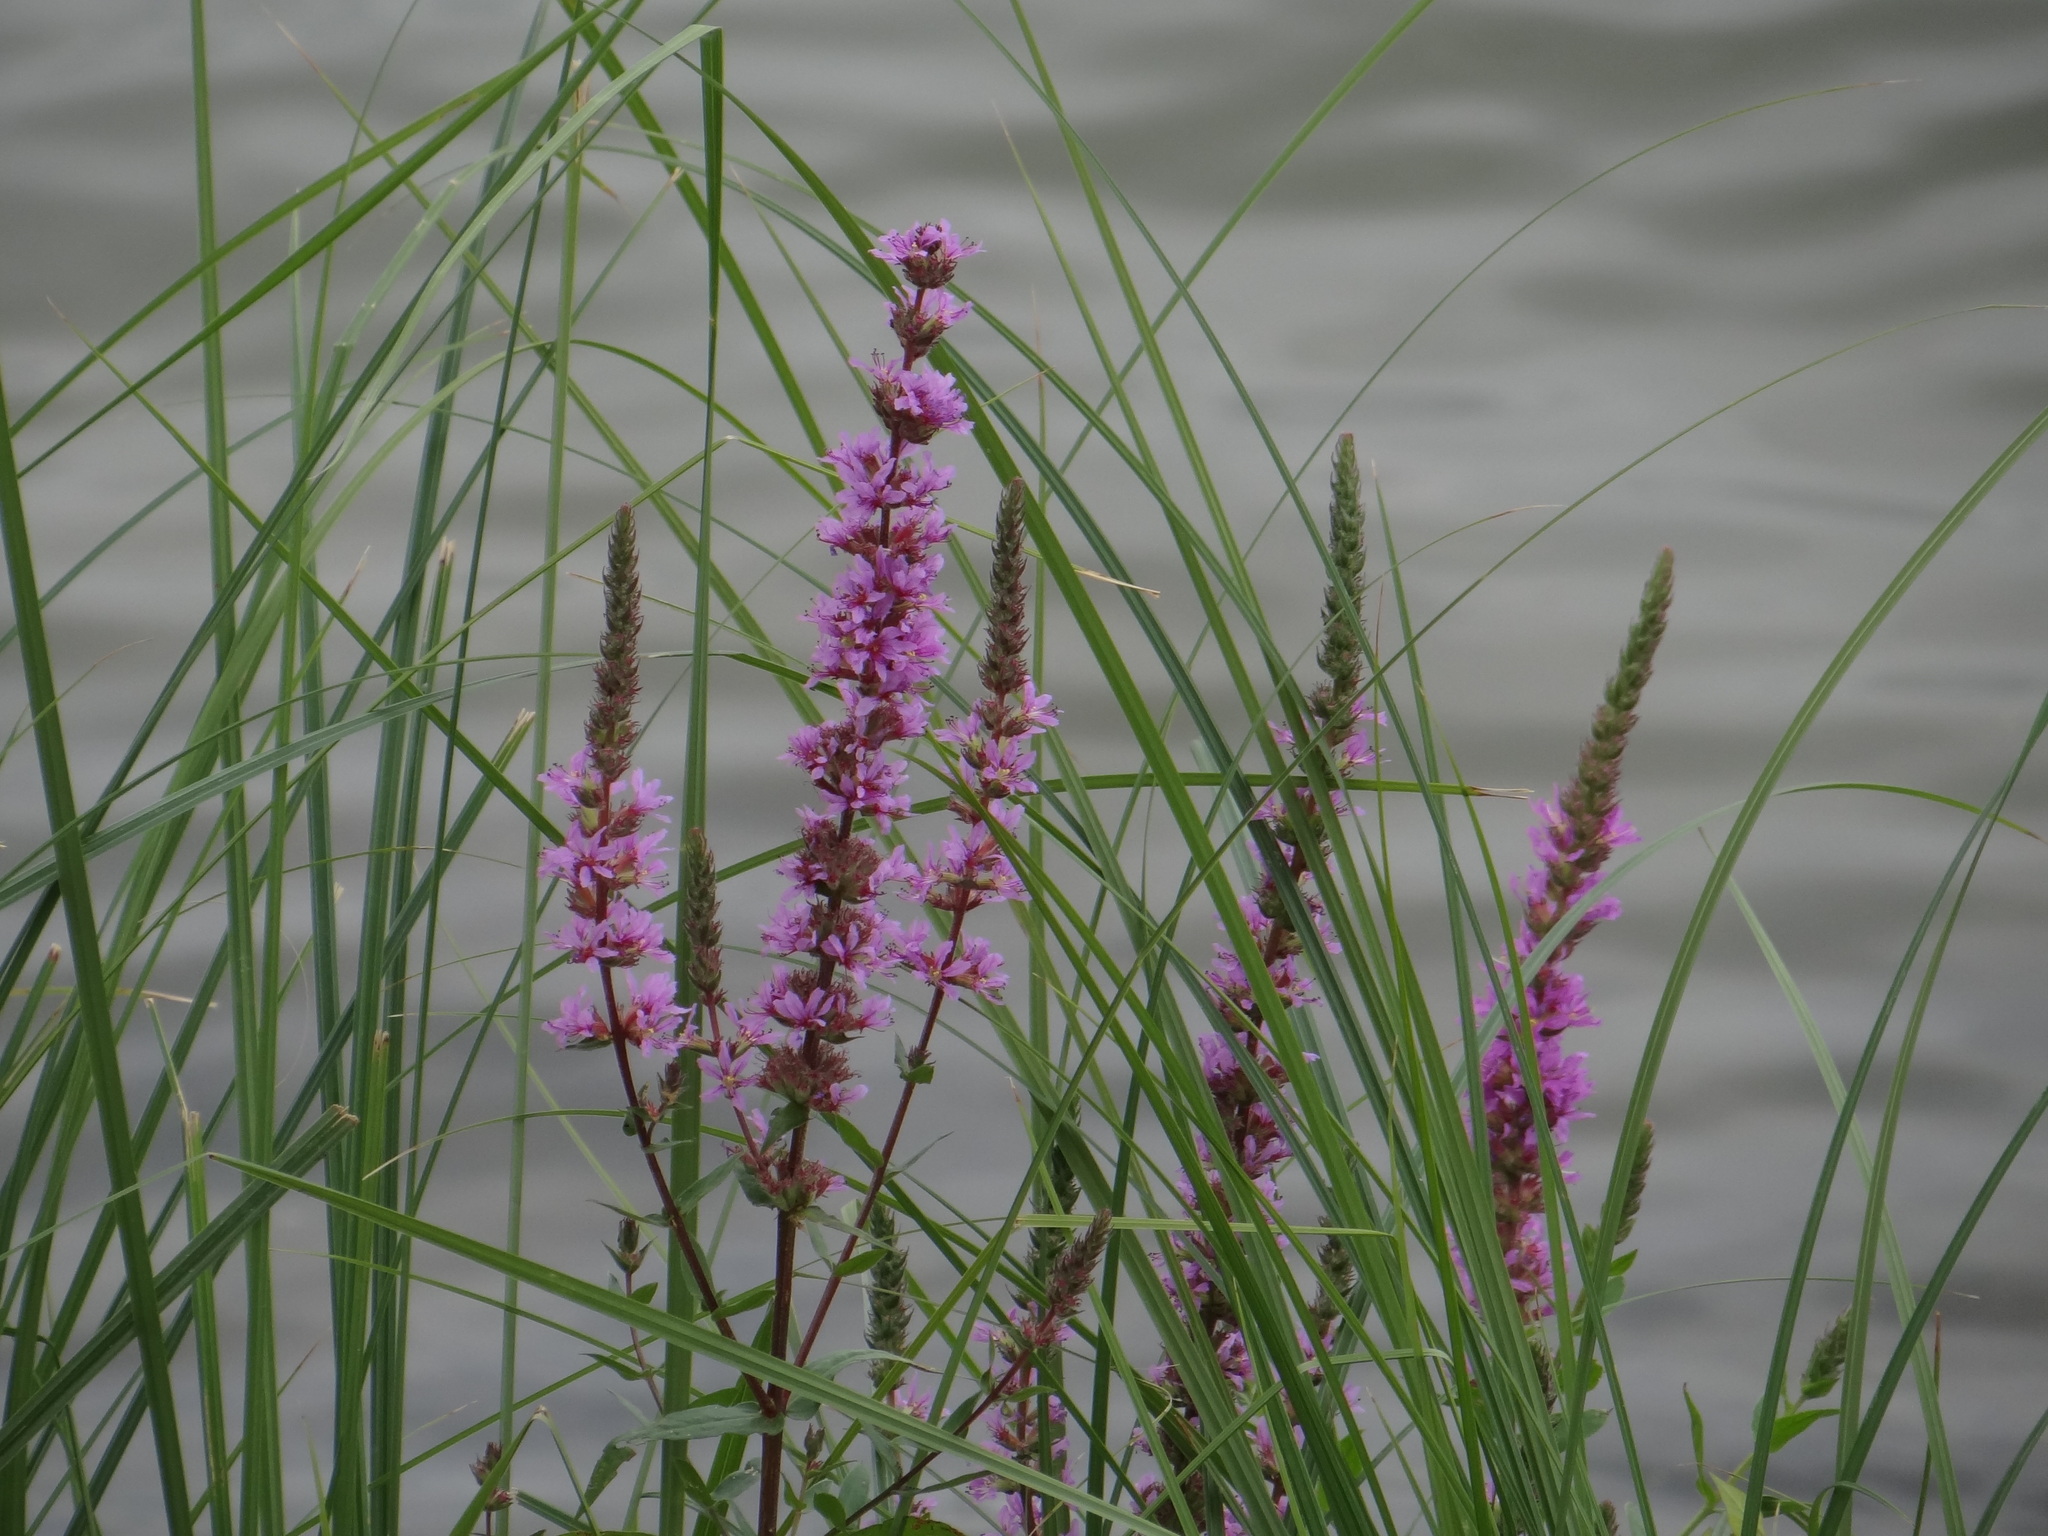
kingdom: Plantae
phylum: Tracheophyta
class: Magnoliopsida
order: Myrtales
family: Lythraceae
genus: Lythrum
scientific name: Lythrum salicaria
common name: Purple loosestrife
